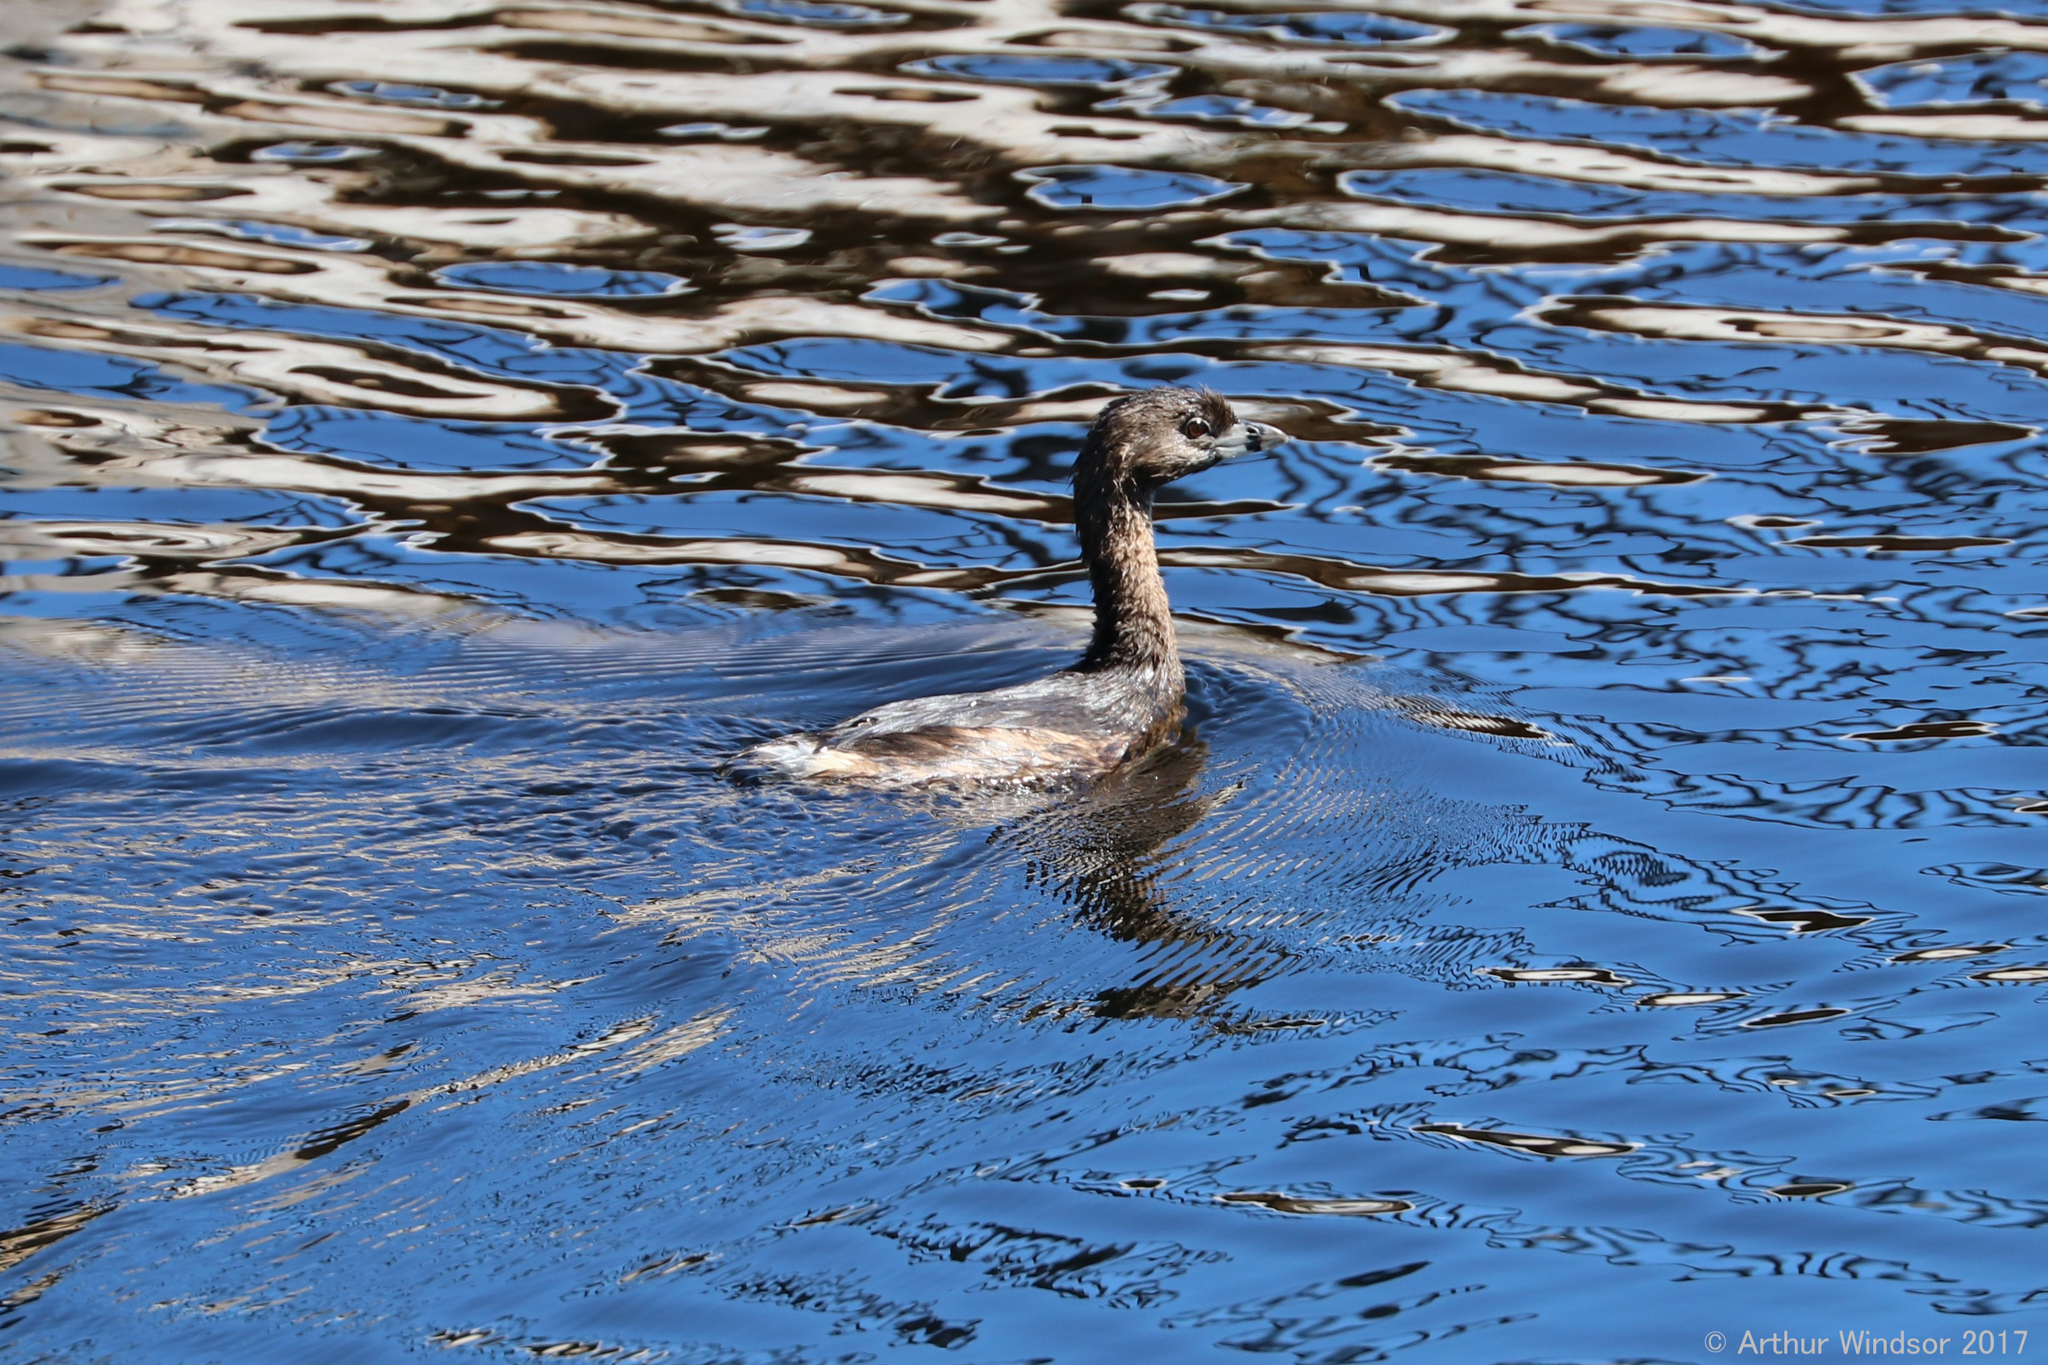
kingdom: Animalia
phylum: Chordata
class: Aves
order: Podicipediformes
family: Podicipedidae
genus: Podilymbus
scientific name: Podilymbus podiceps
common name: Pied-billed grebe
